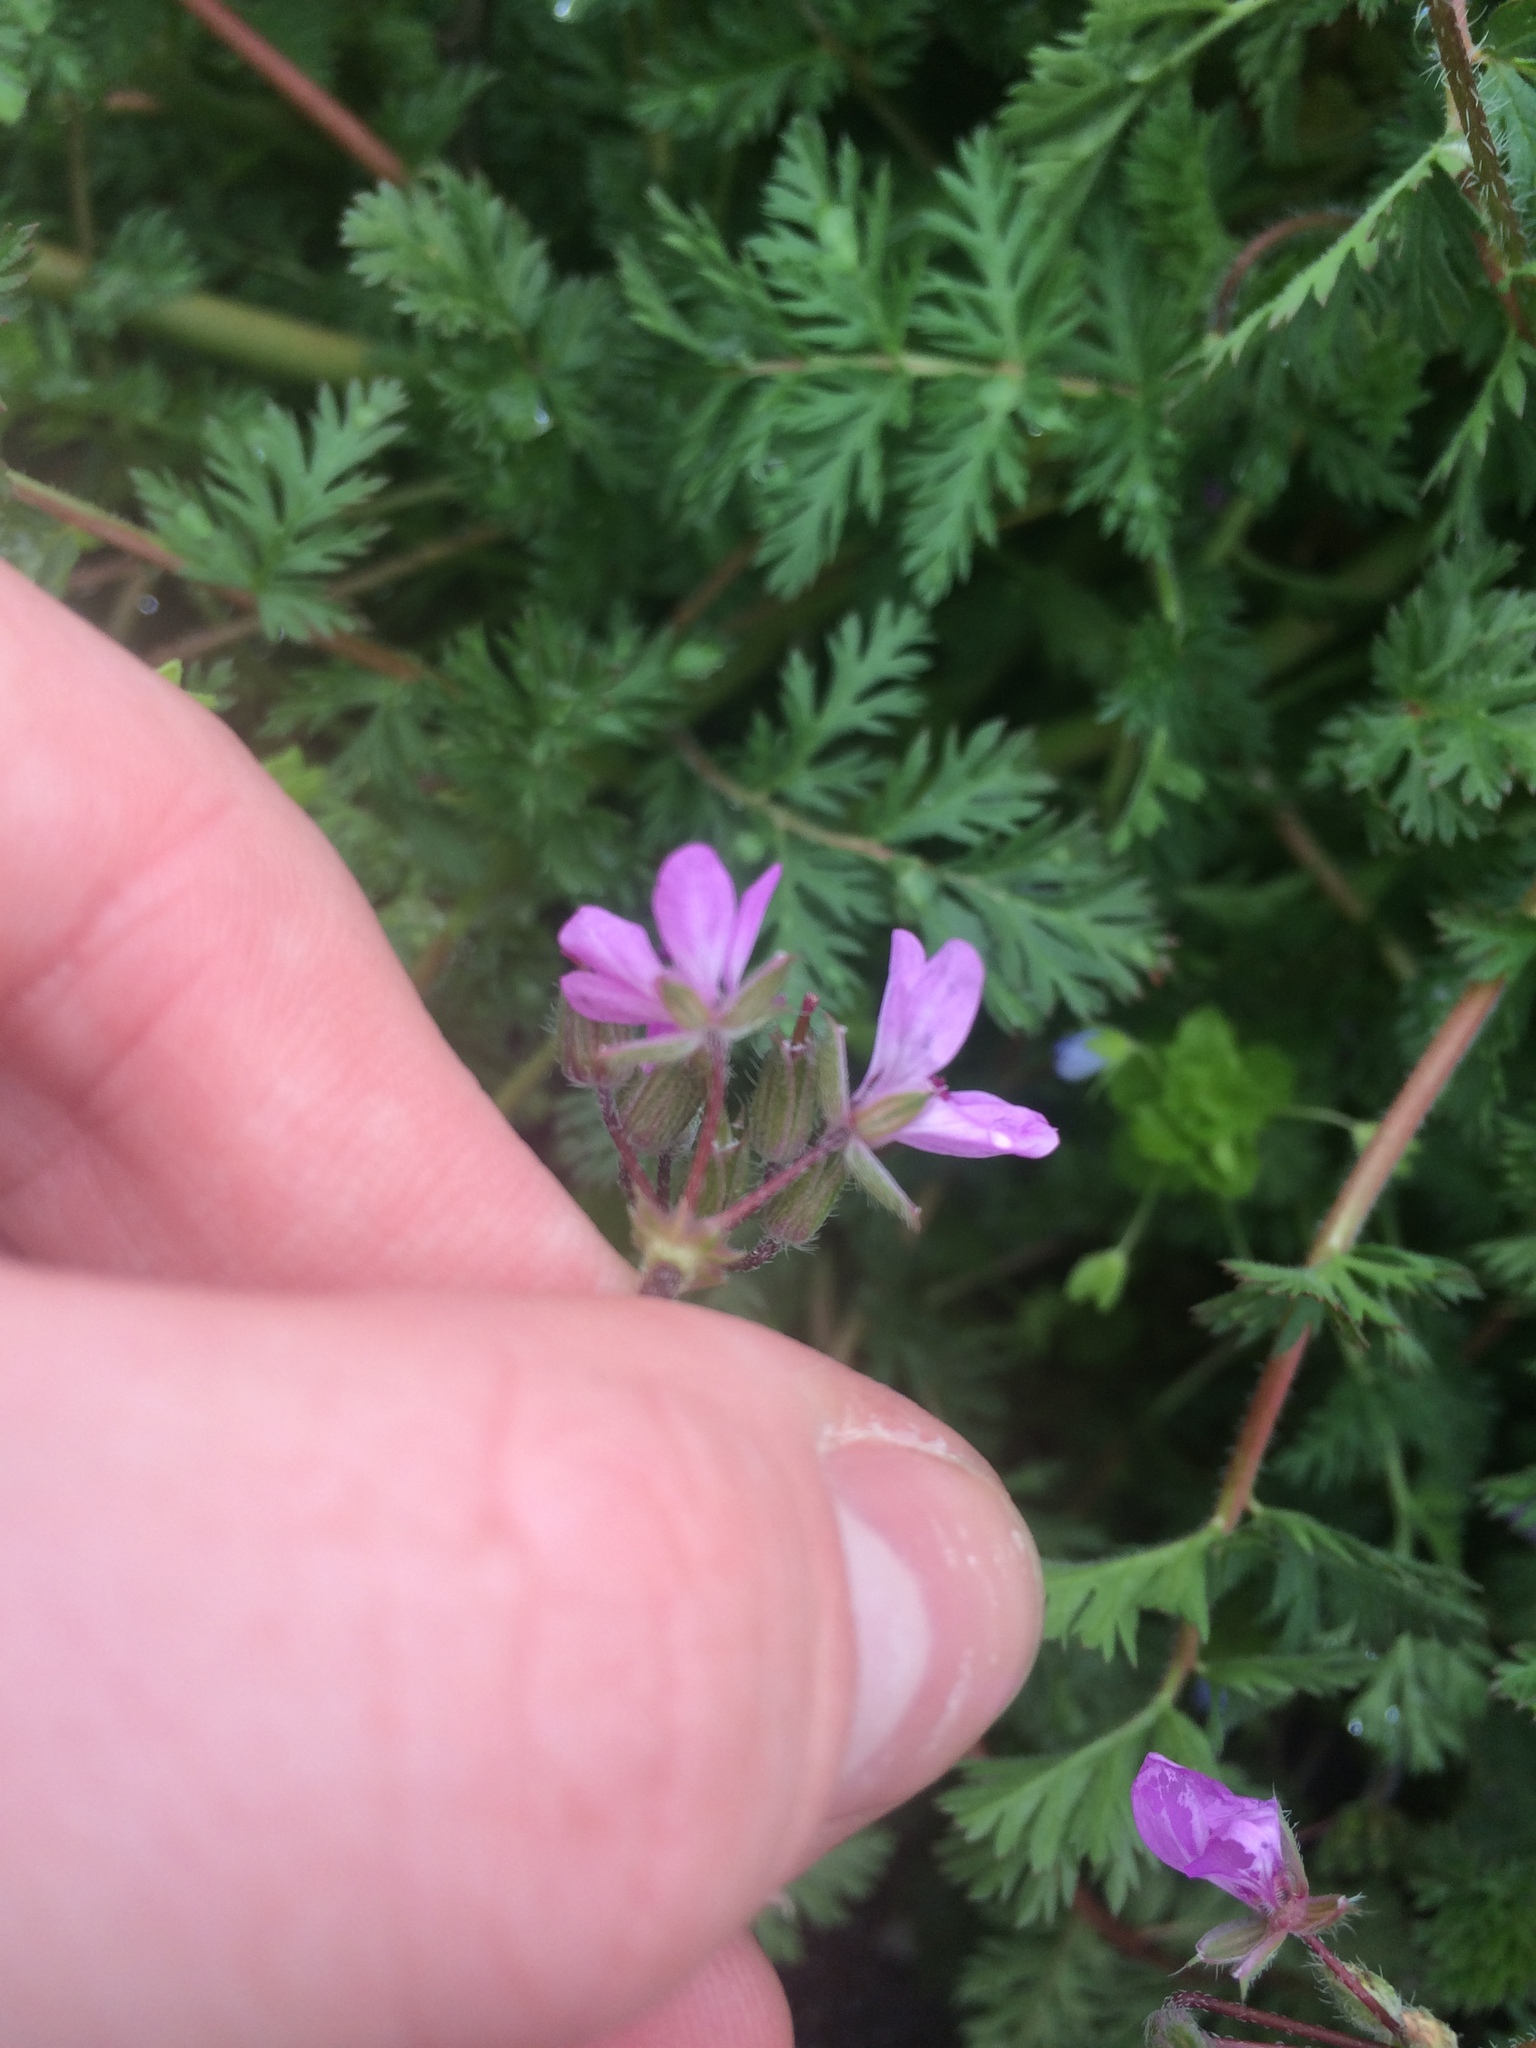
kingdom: Plantae
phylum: Tracheophyta
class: Magnoliopsida
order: Geraniales
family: Geraniaceae
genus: Erodium
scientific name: Erodium cicutarium
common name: Common stork's-bill
